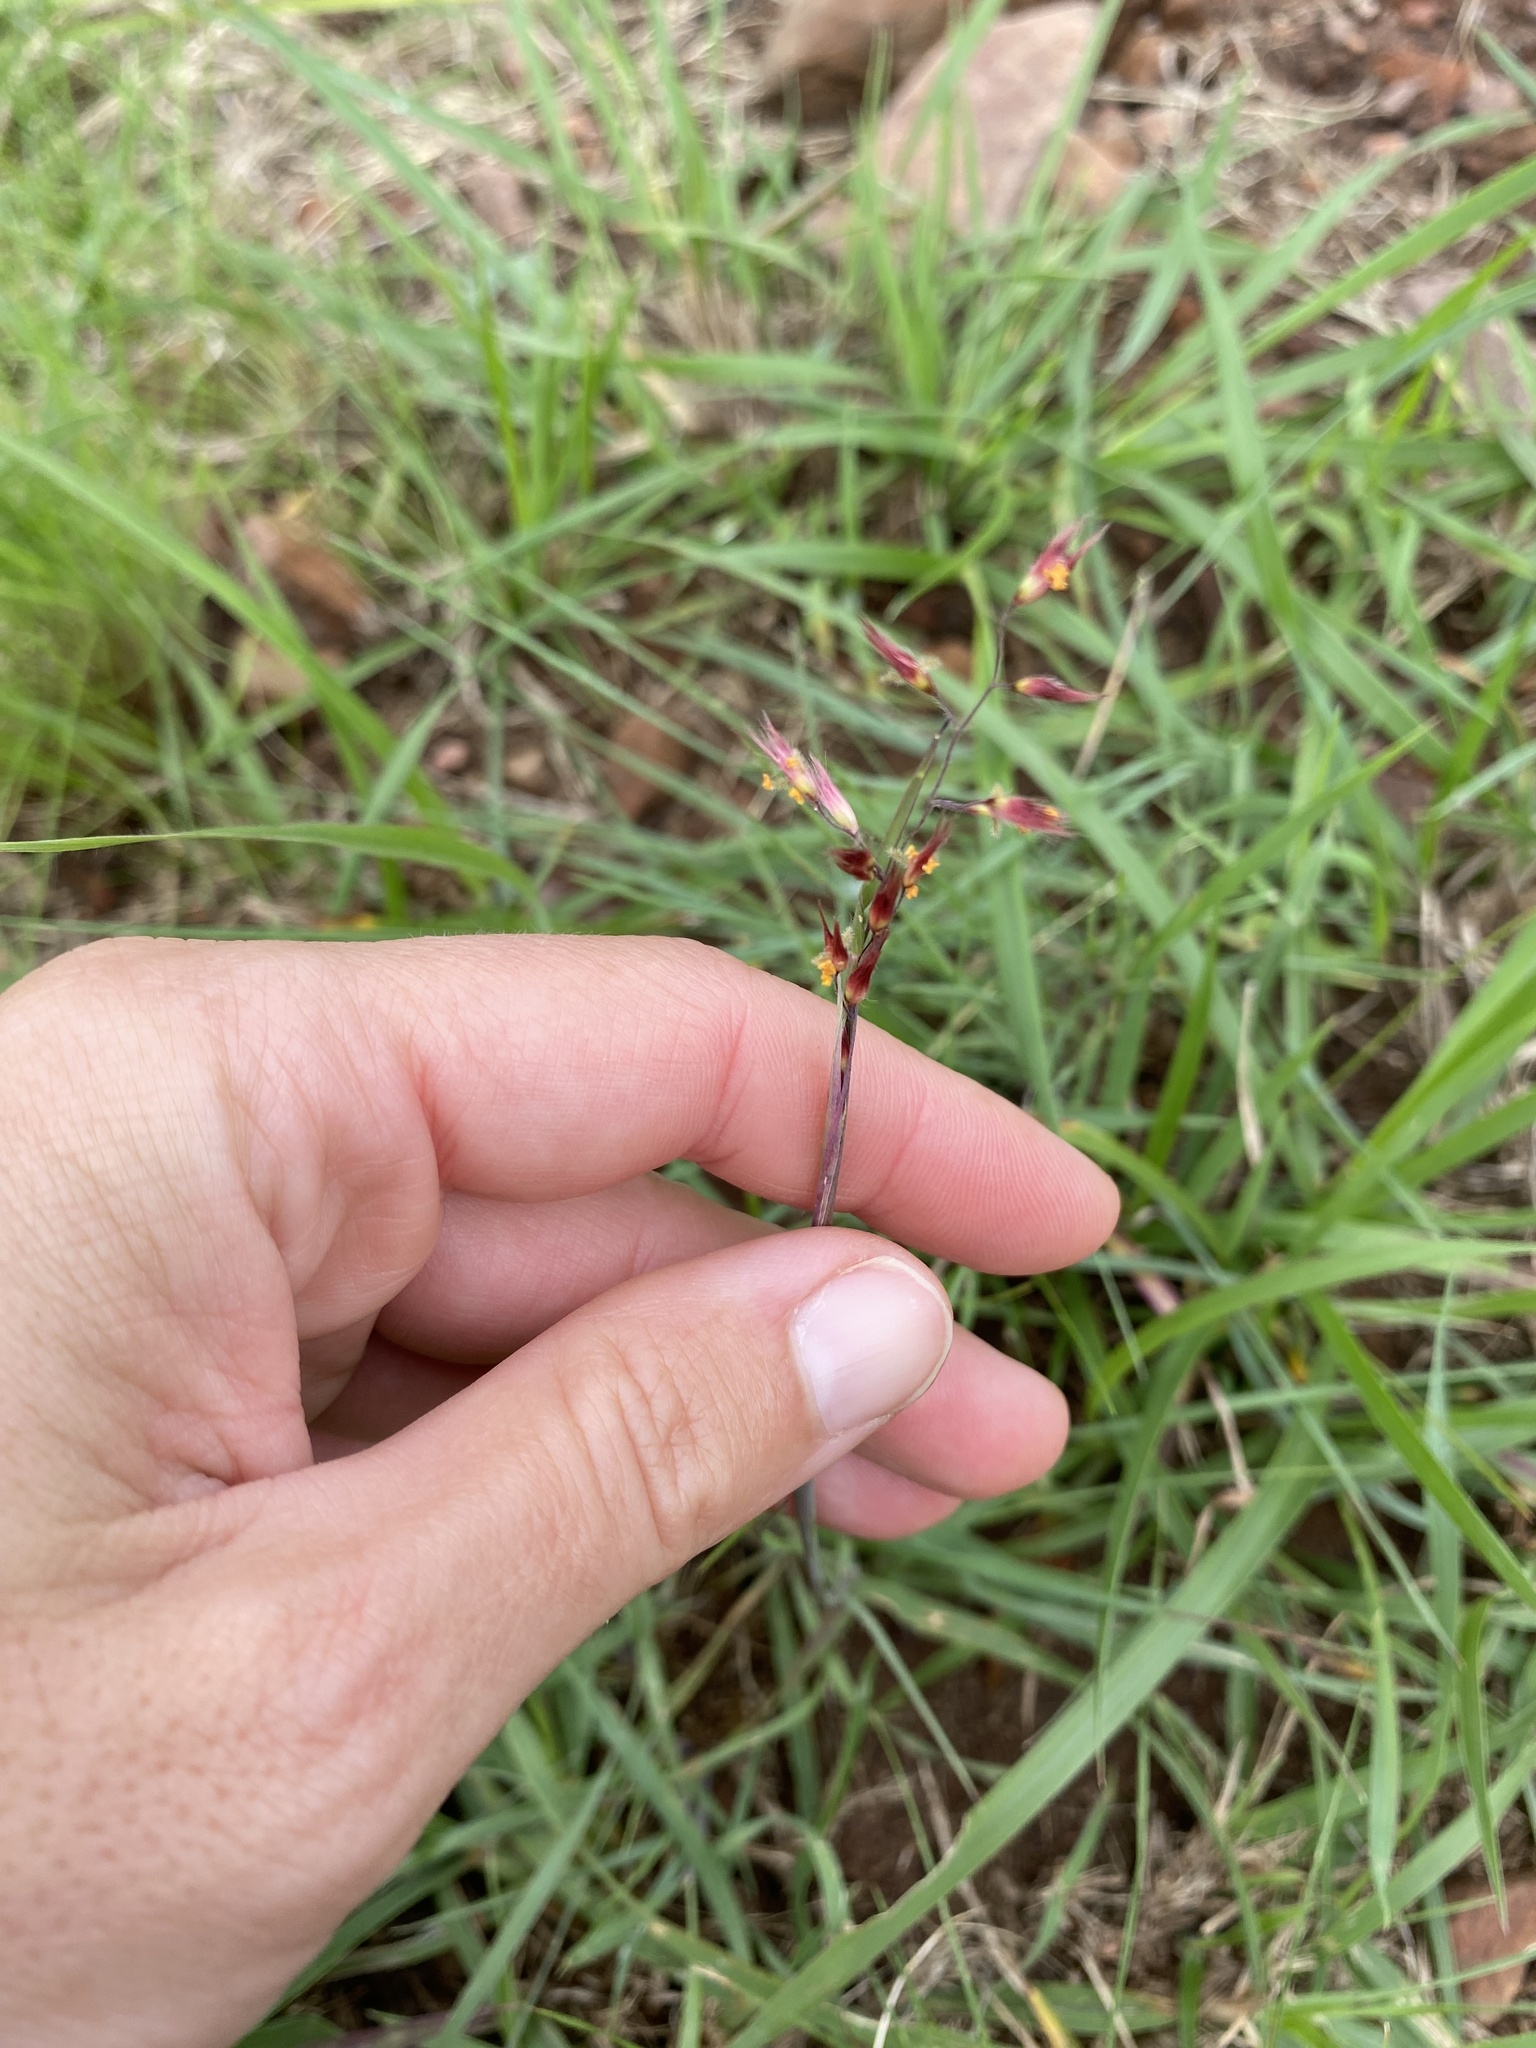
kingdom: Plantae
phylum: Tracheophyta
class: Liliopsida
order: Poales
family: Poaceae
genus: Melinis
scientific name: Melinis nerviglumis
